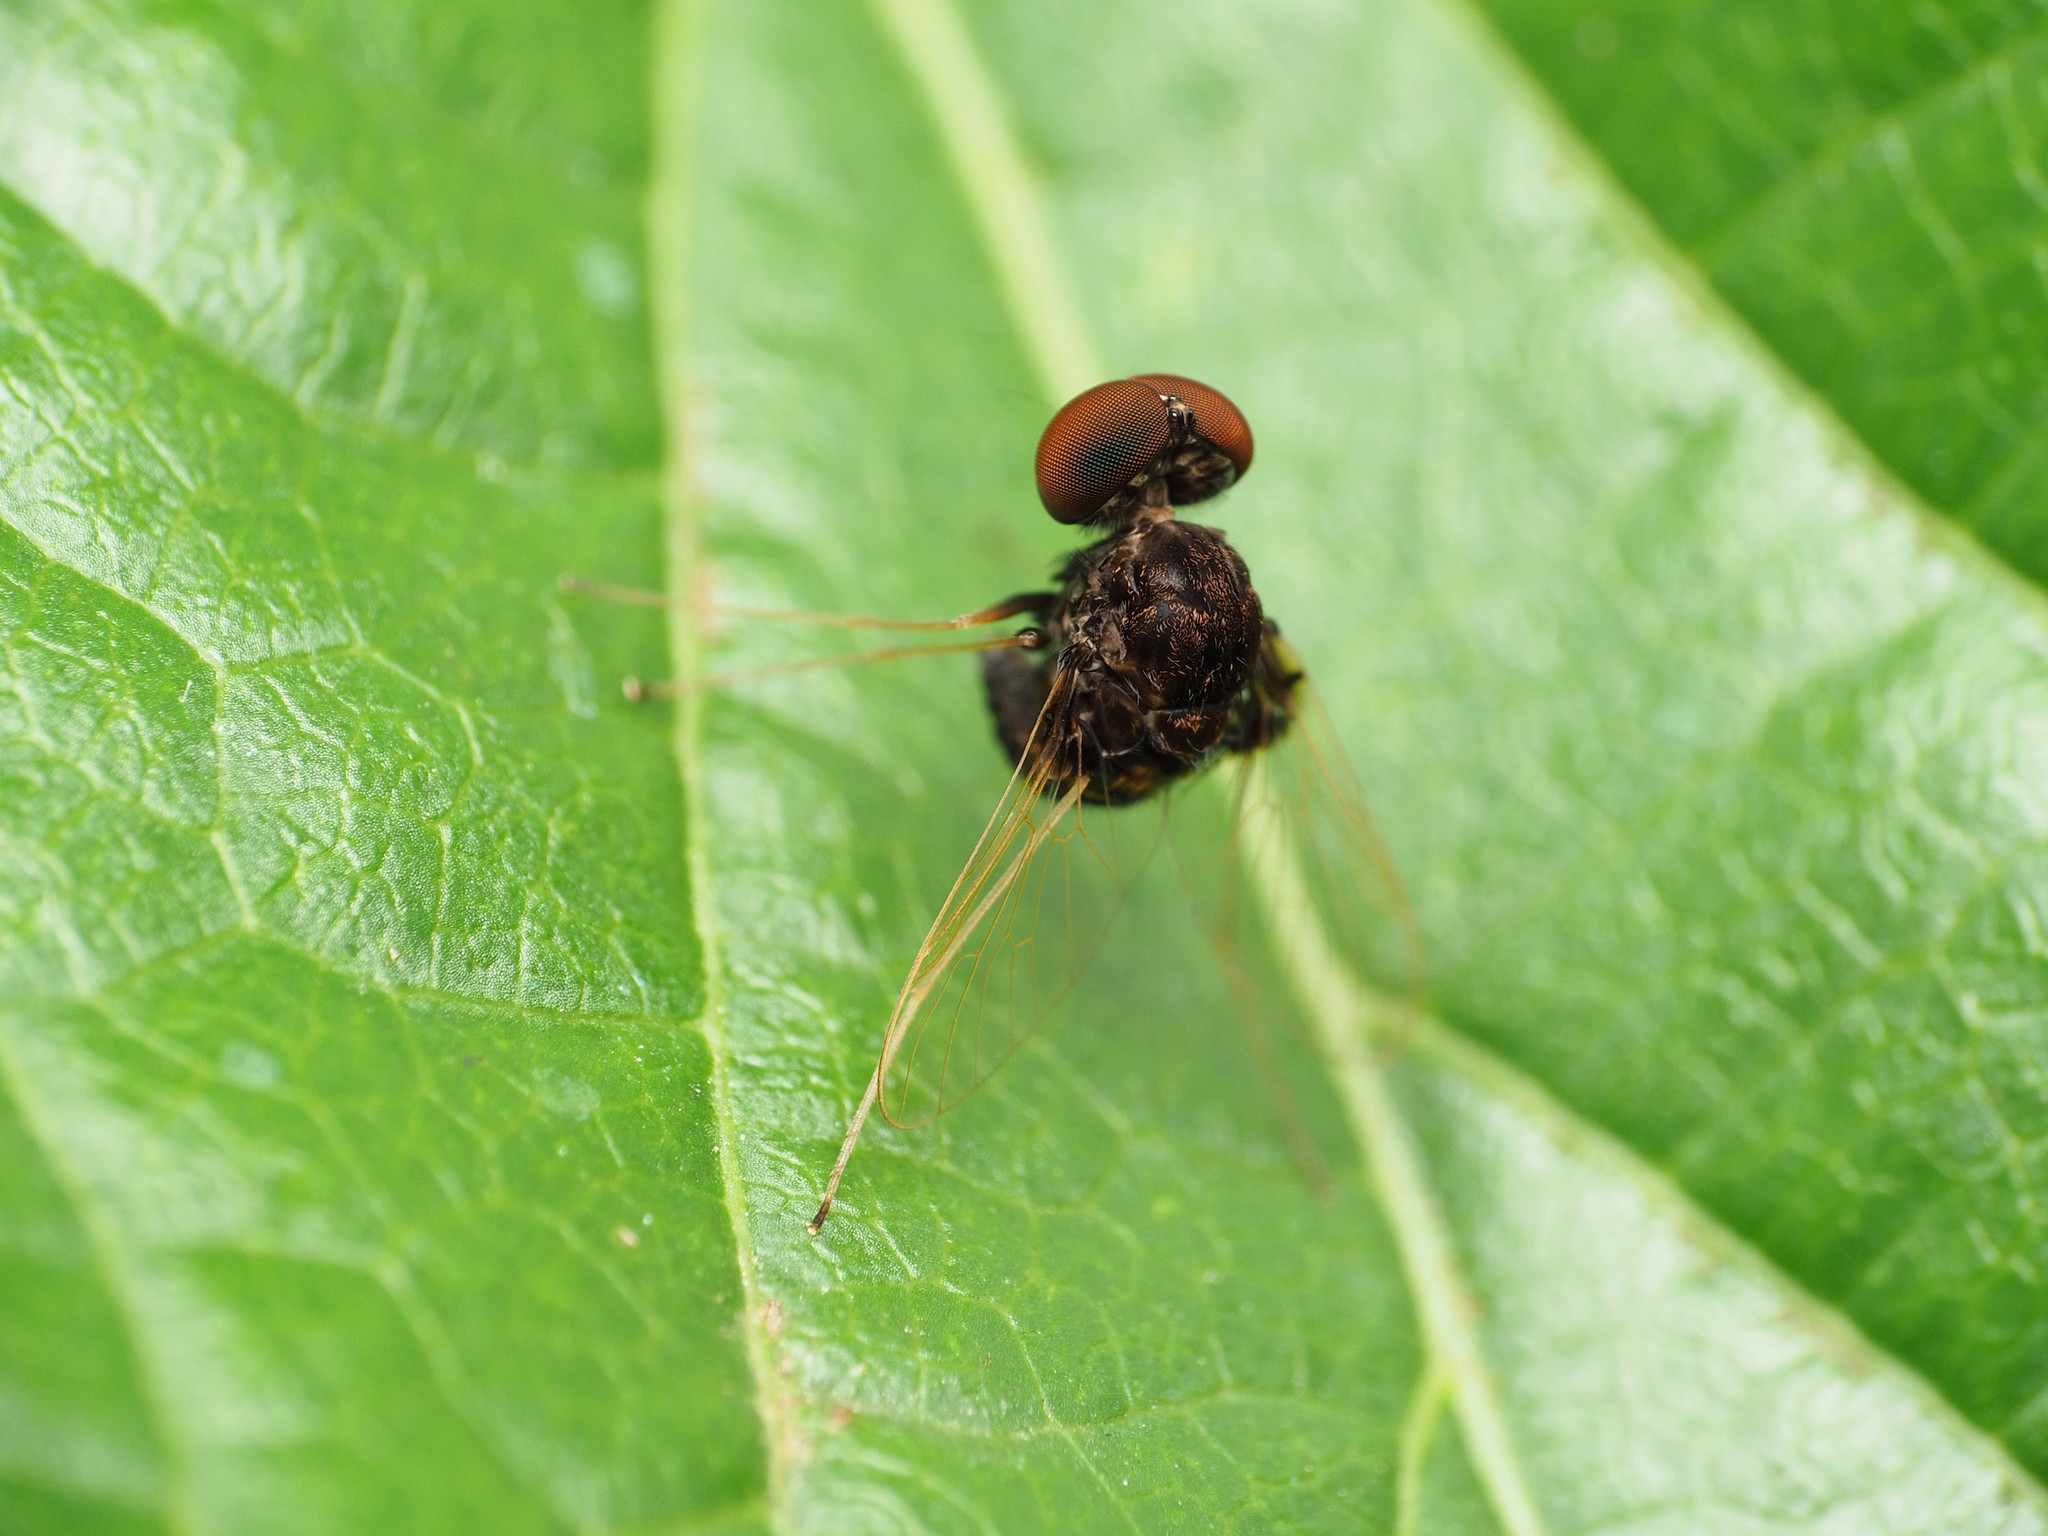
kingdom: Animalia
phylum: Arthropoda
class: Insecta
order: Diptera
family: Rhagionidae
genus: Chrysopilus
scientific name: Chrysopilus basilaris
